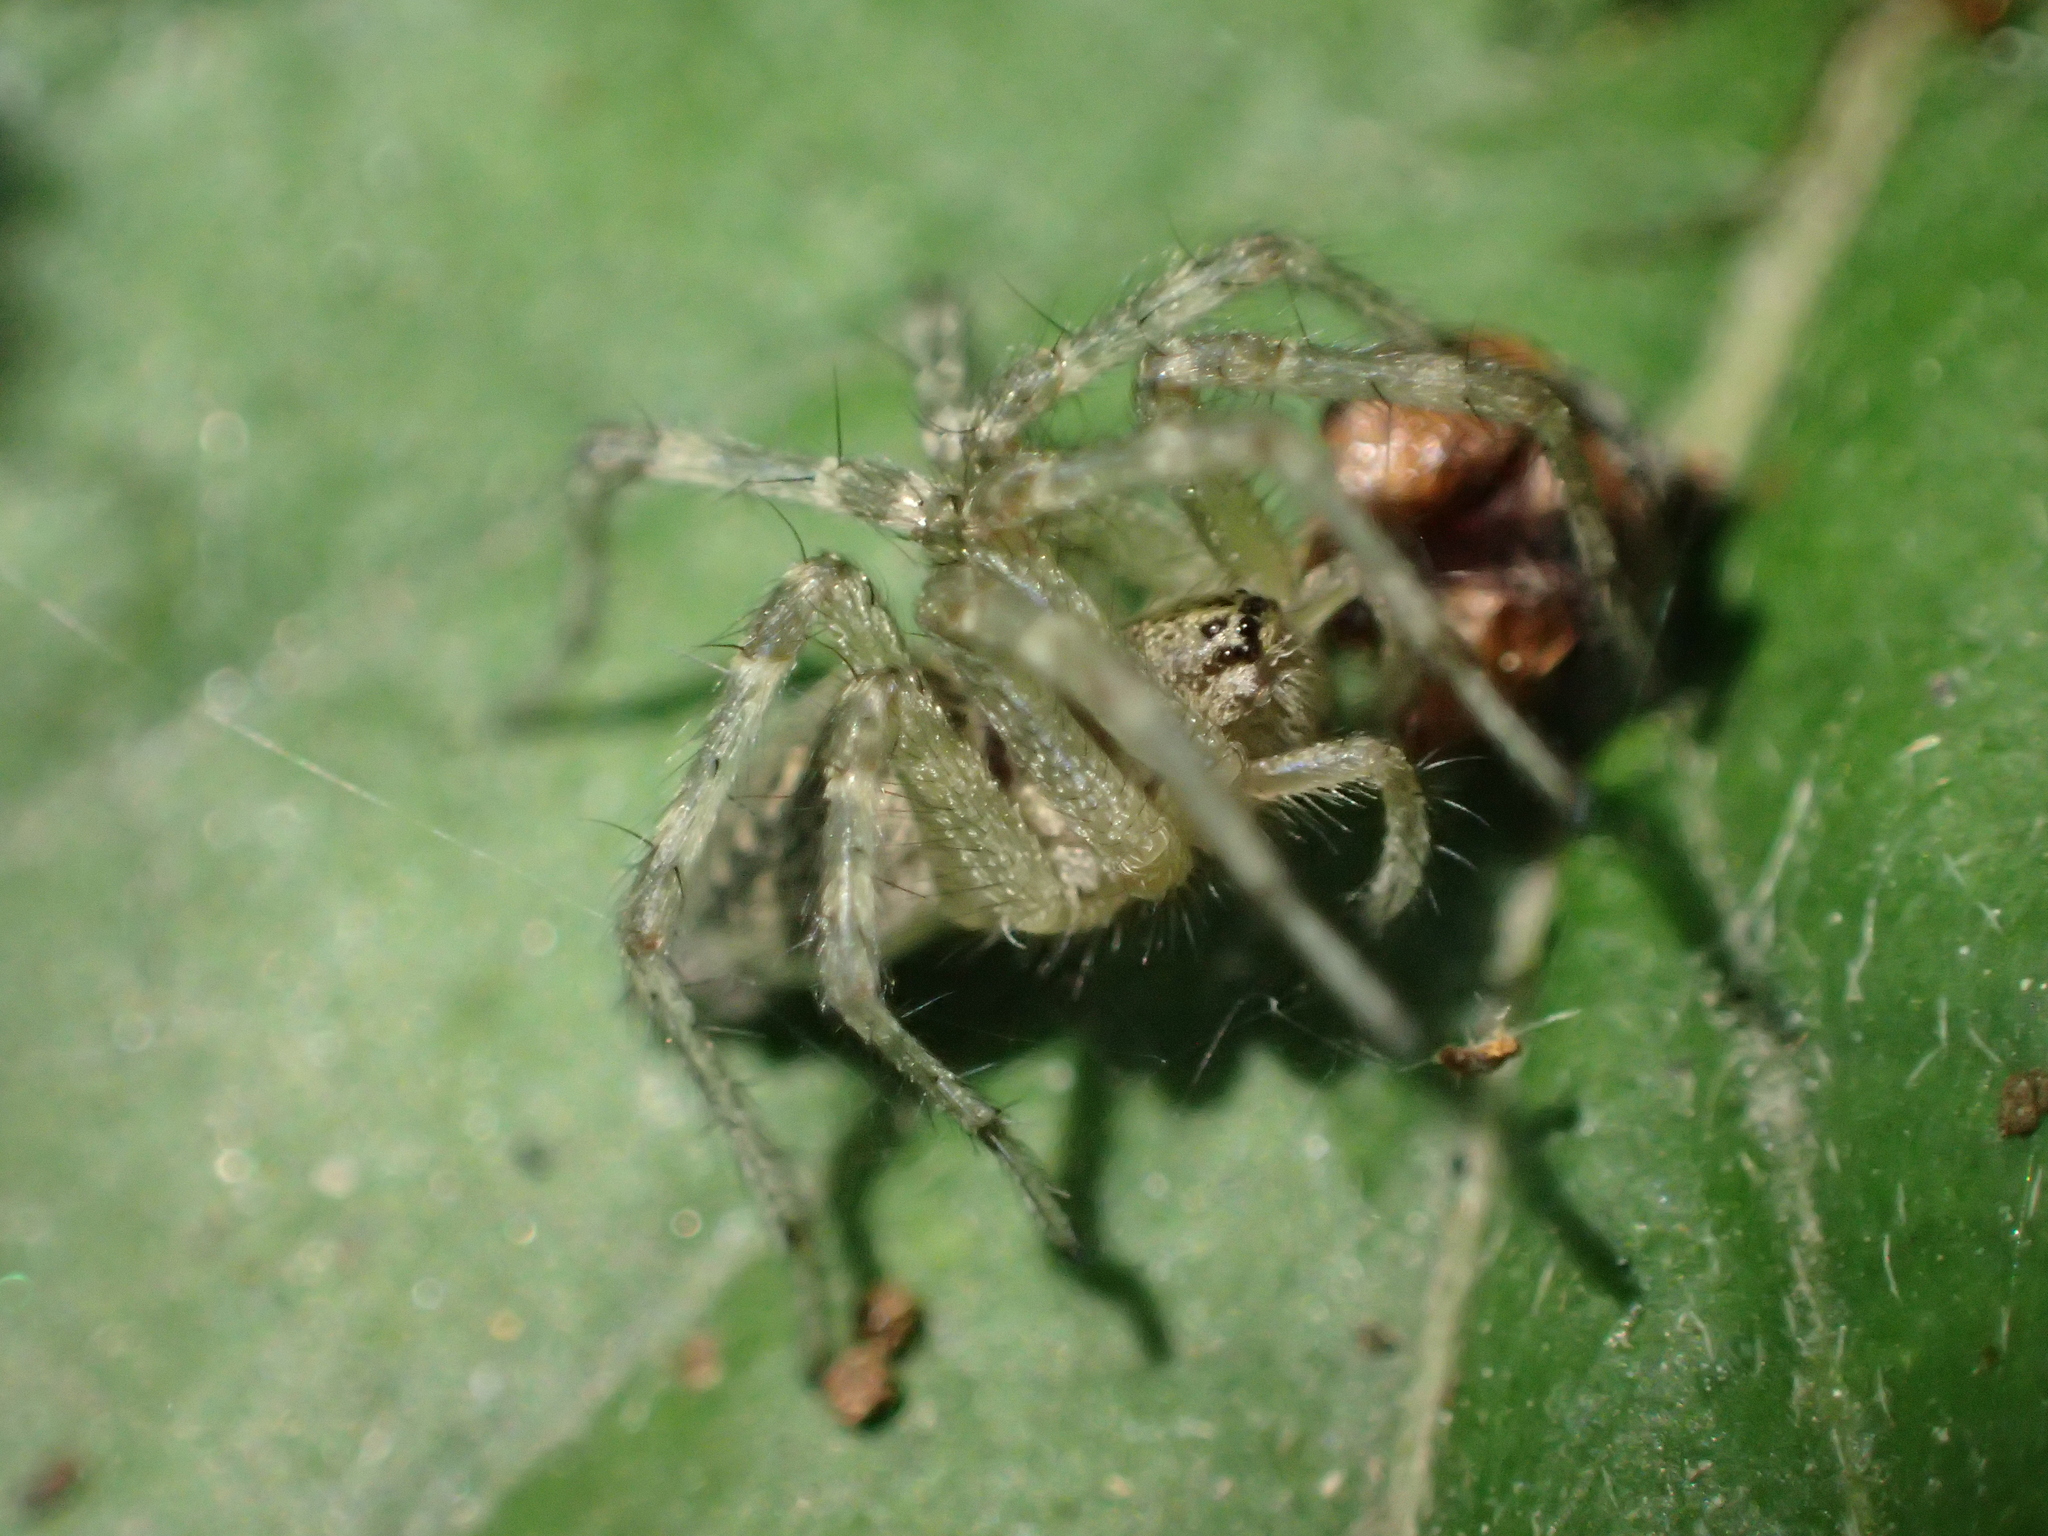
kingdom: Animalia
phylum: Arthropoda
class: Arachnida
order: Araneae
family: Agelenidae
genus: Allagelena
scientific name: Allagelena gracilens
